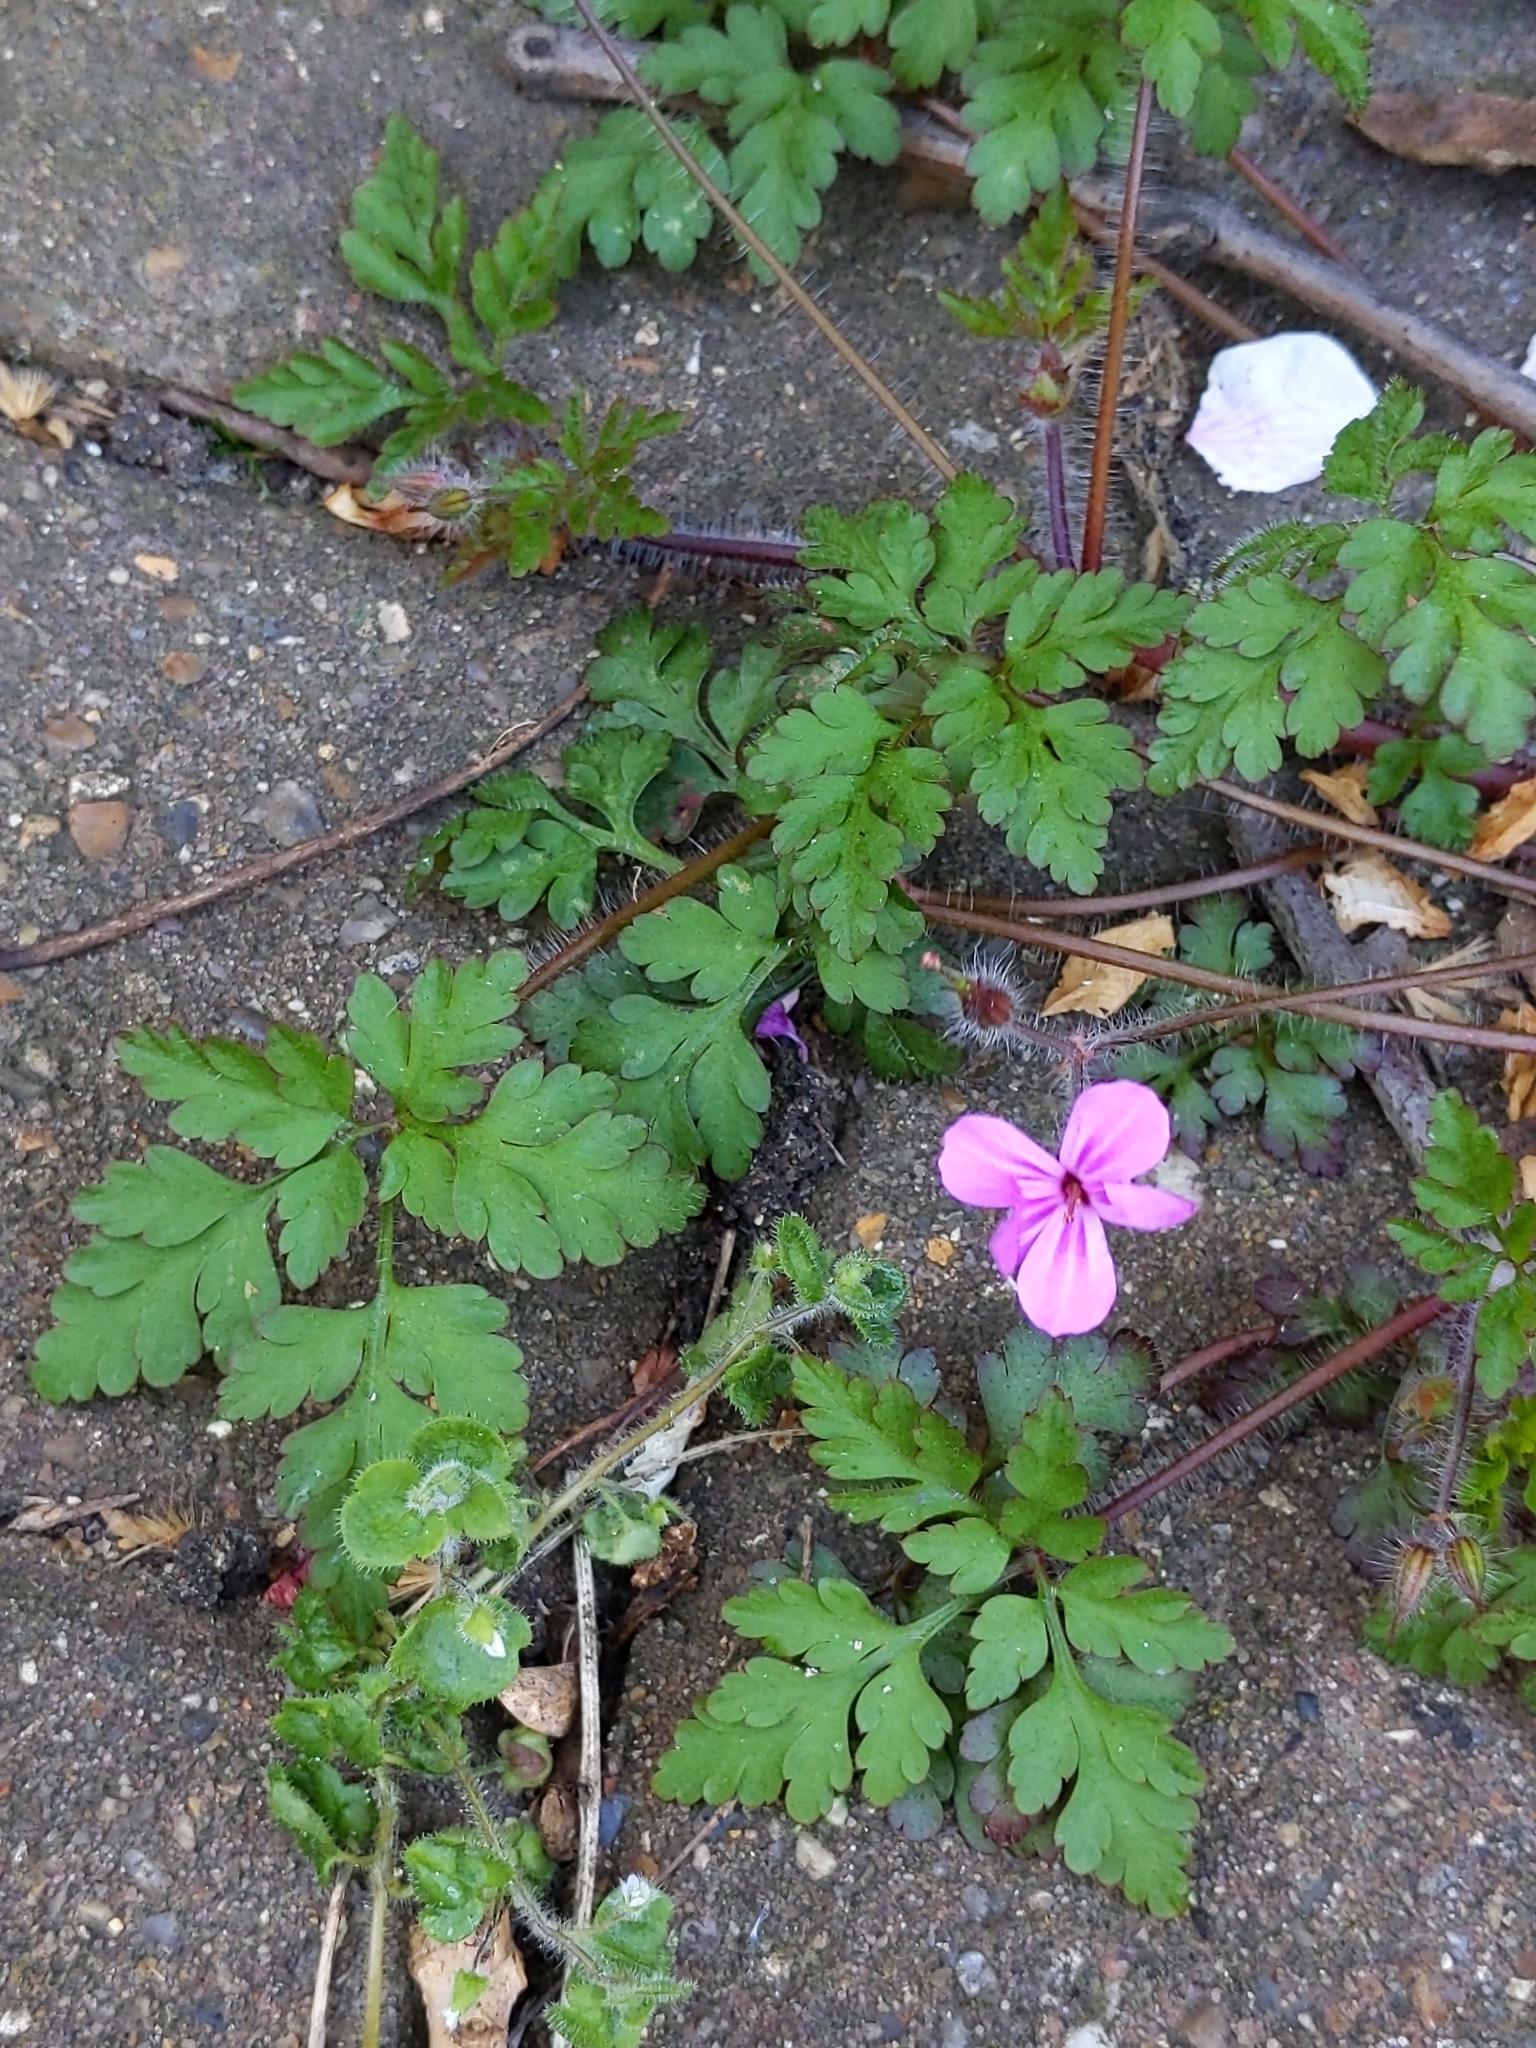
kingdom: Plantae
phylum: Tracheophyta
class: Magnoliopsida
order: Geraniales
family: Geraniaceae
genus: Geranium
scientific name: Geranium robertianum
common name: Herb-robert
